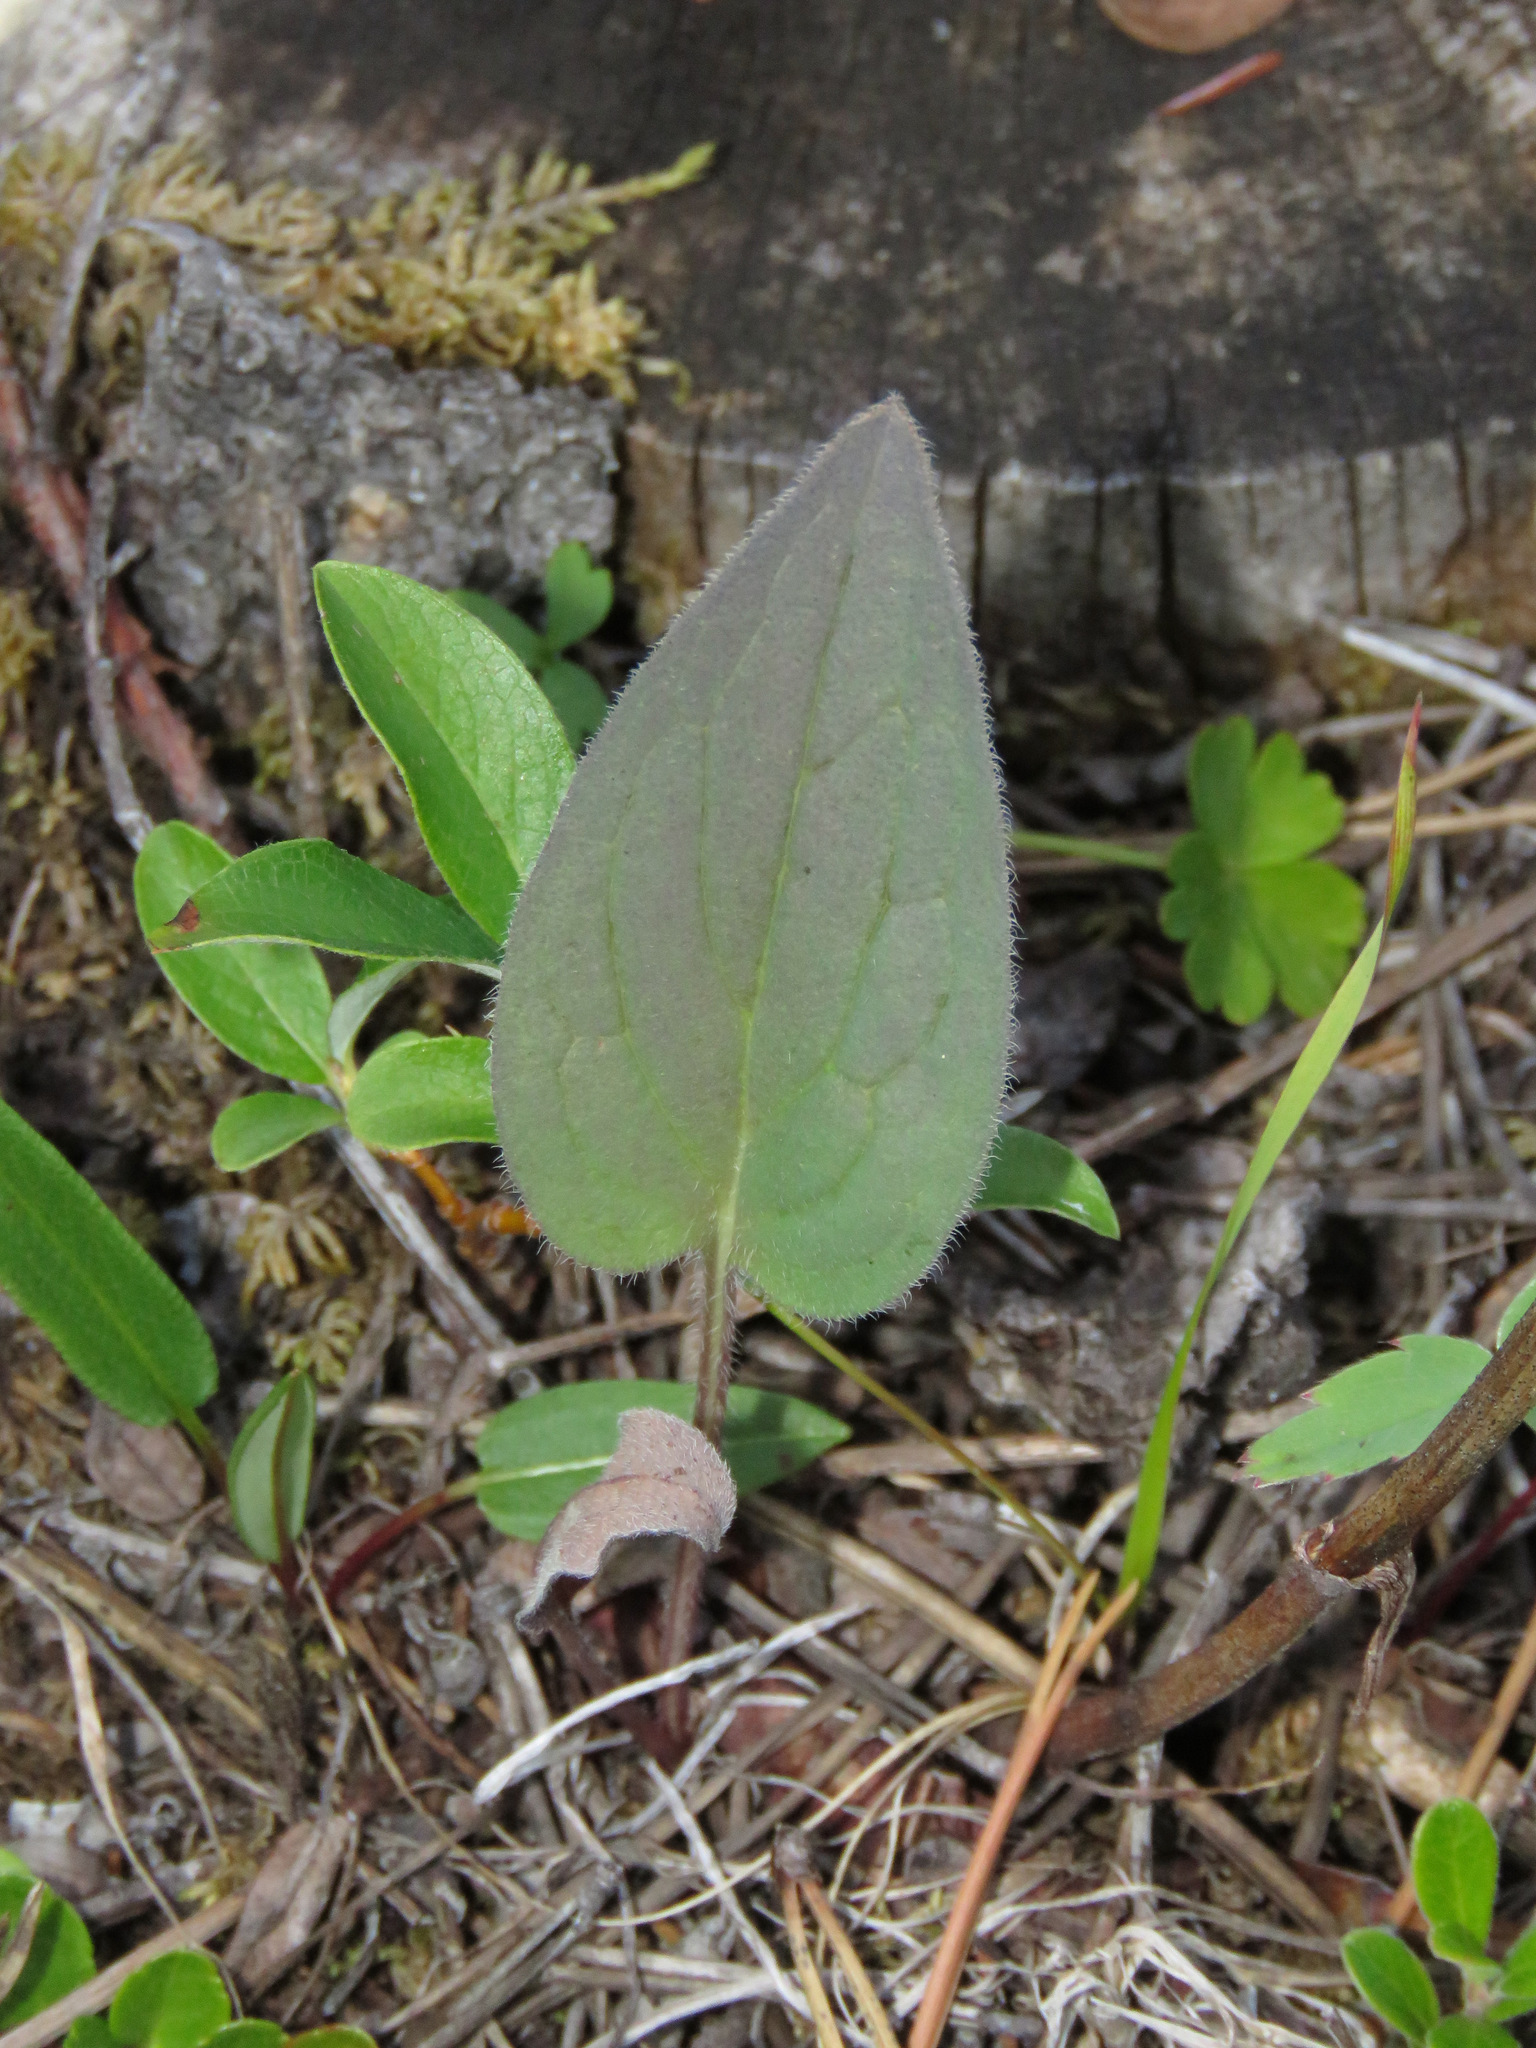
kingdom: Plantae
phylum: Tracheophyta
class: Magnoliopsida
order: Boraginales
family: Boraginaceae
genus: Mertensia
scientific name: Mertensia paniculata
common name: Panicled bluebells
